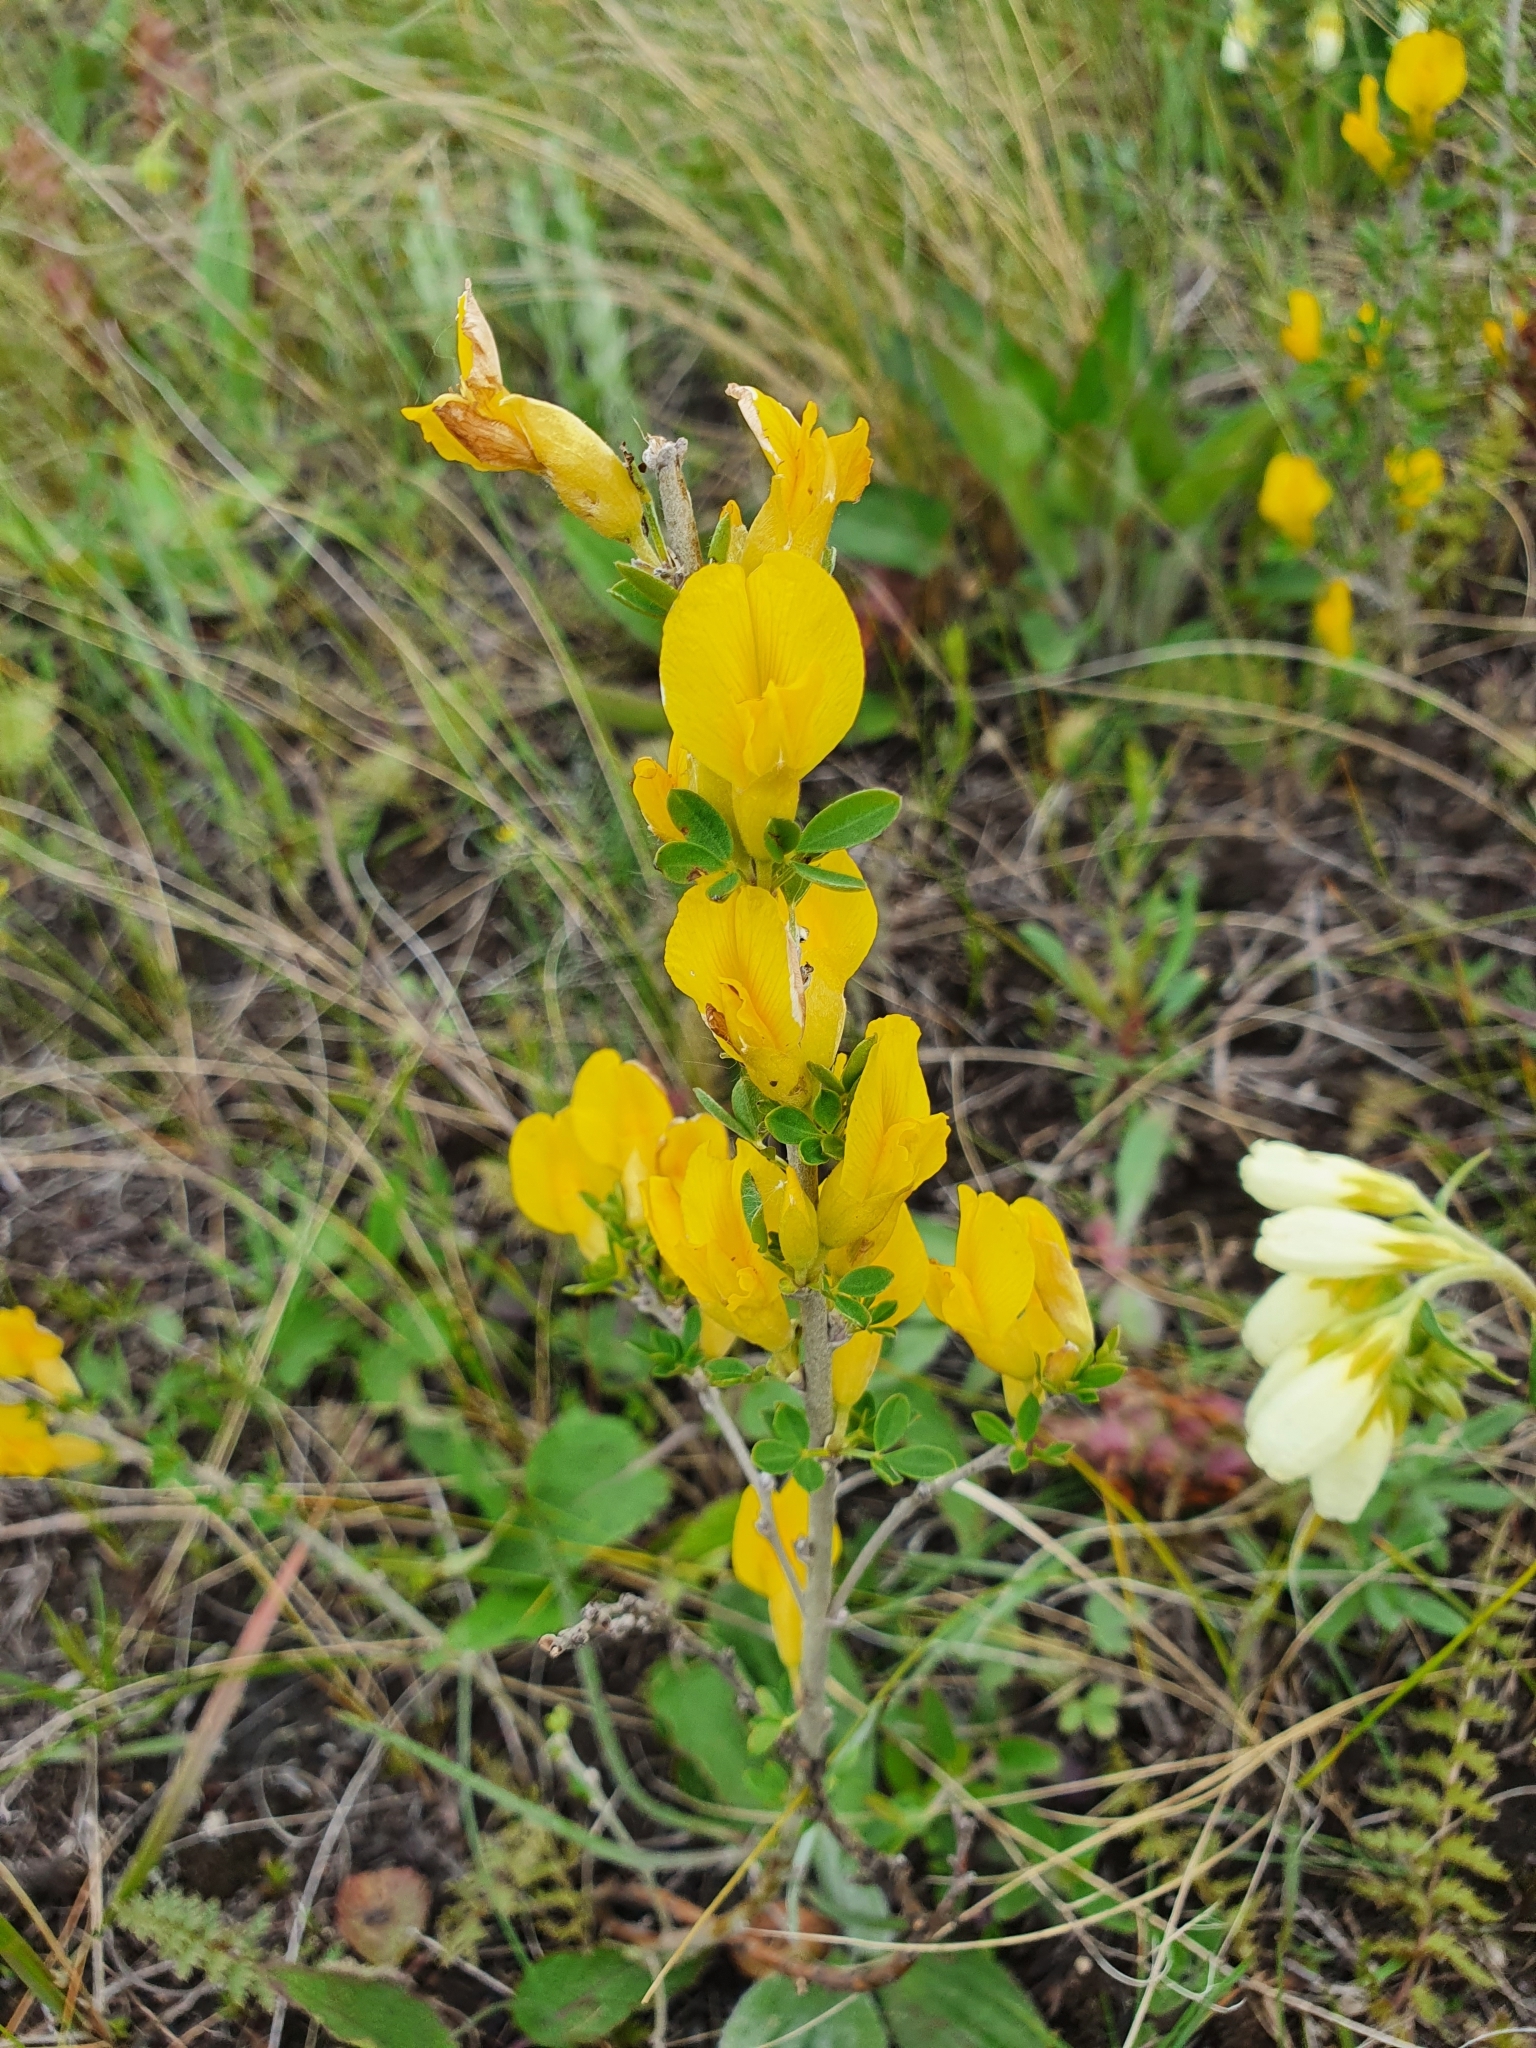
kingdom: Plantae
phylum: Tracheophyta
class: Magnoliopsida
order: Fabales
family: Fabaceae
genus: Chamaecytisus
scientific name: Chamaecytisus ruthenicus
